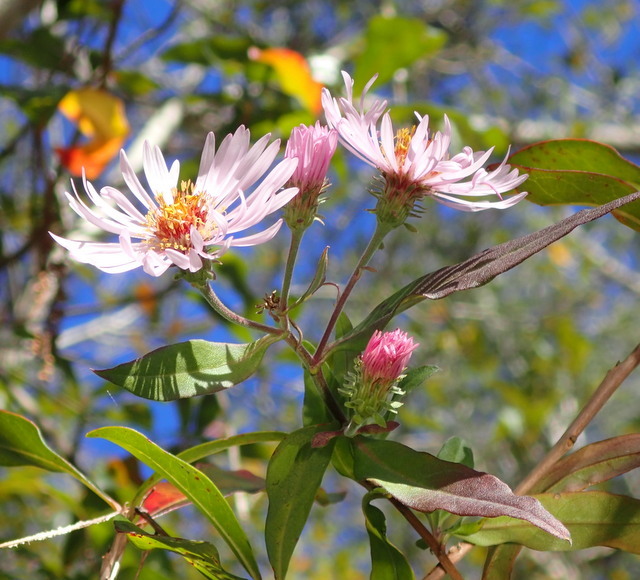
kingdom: Plantae
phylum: Tracheophyta
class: Magnoliopsida
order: Asterales
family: Asteraceae
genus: Ampelaster
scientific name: Ampelaster carolinianus
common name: Climbing aster
